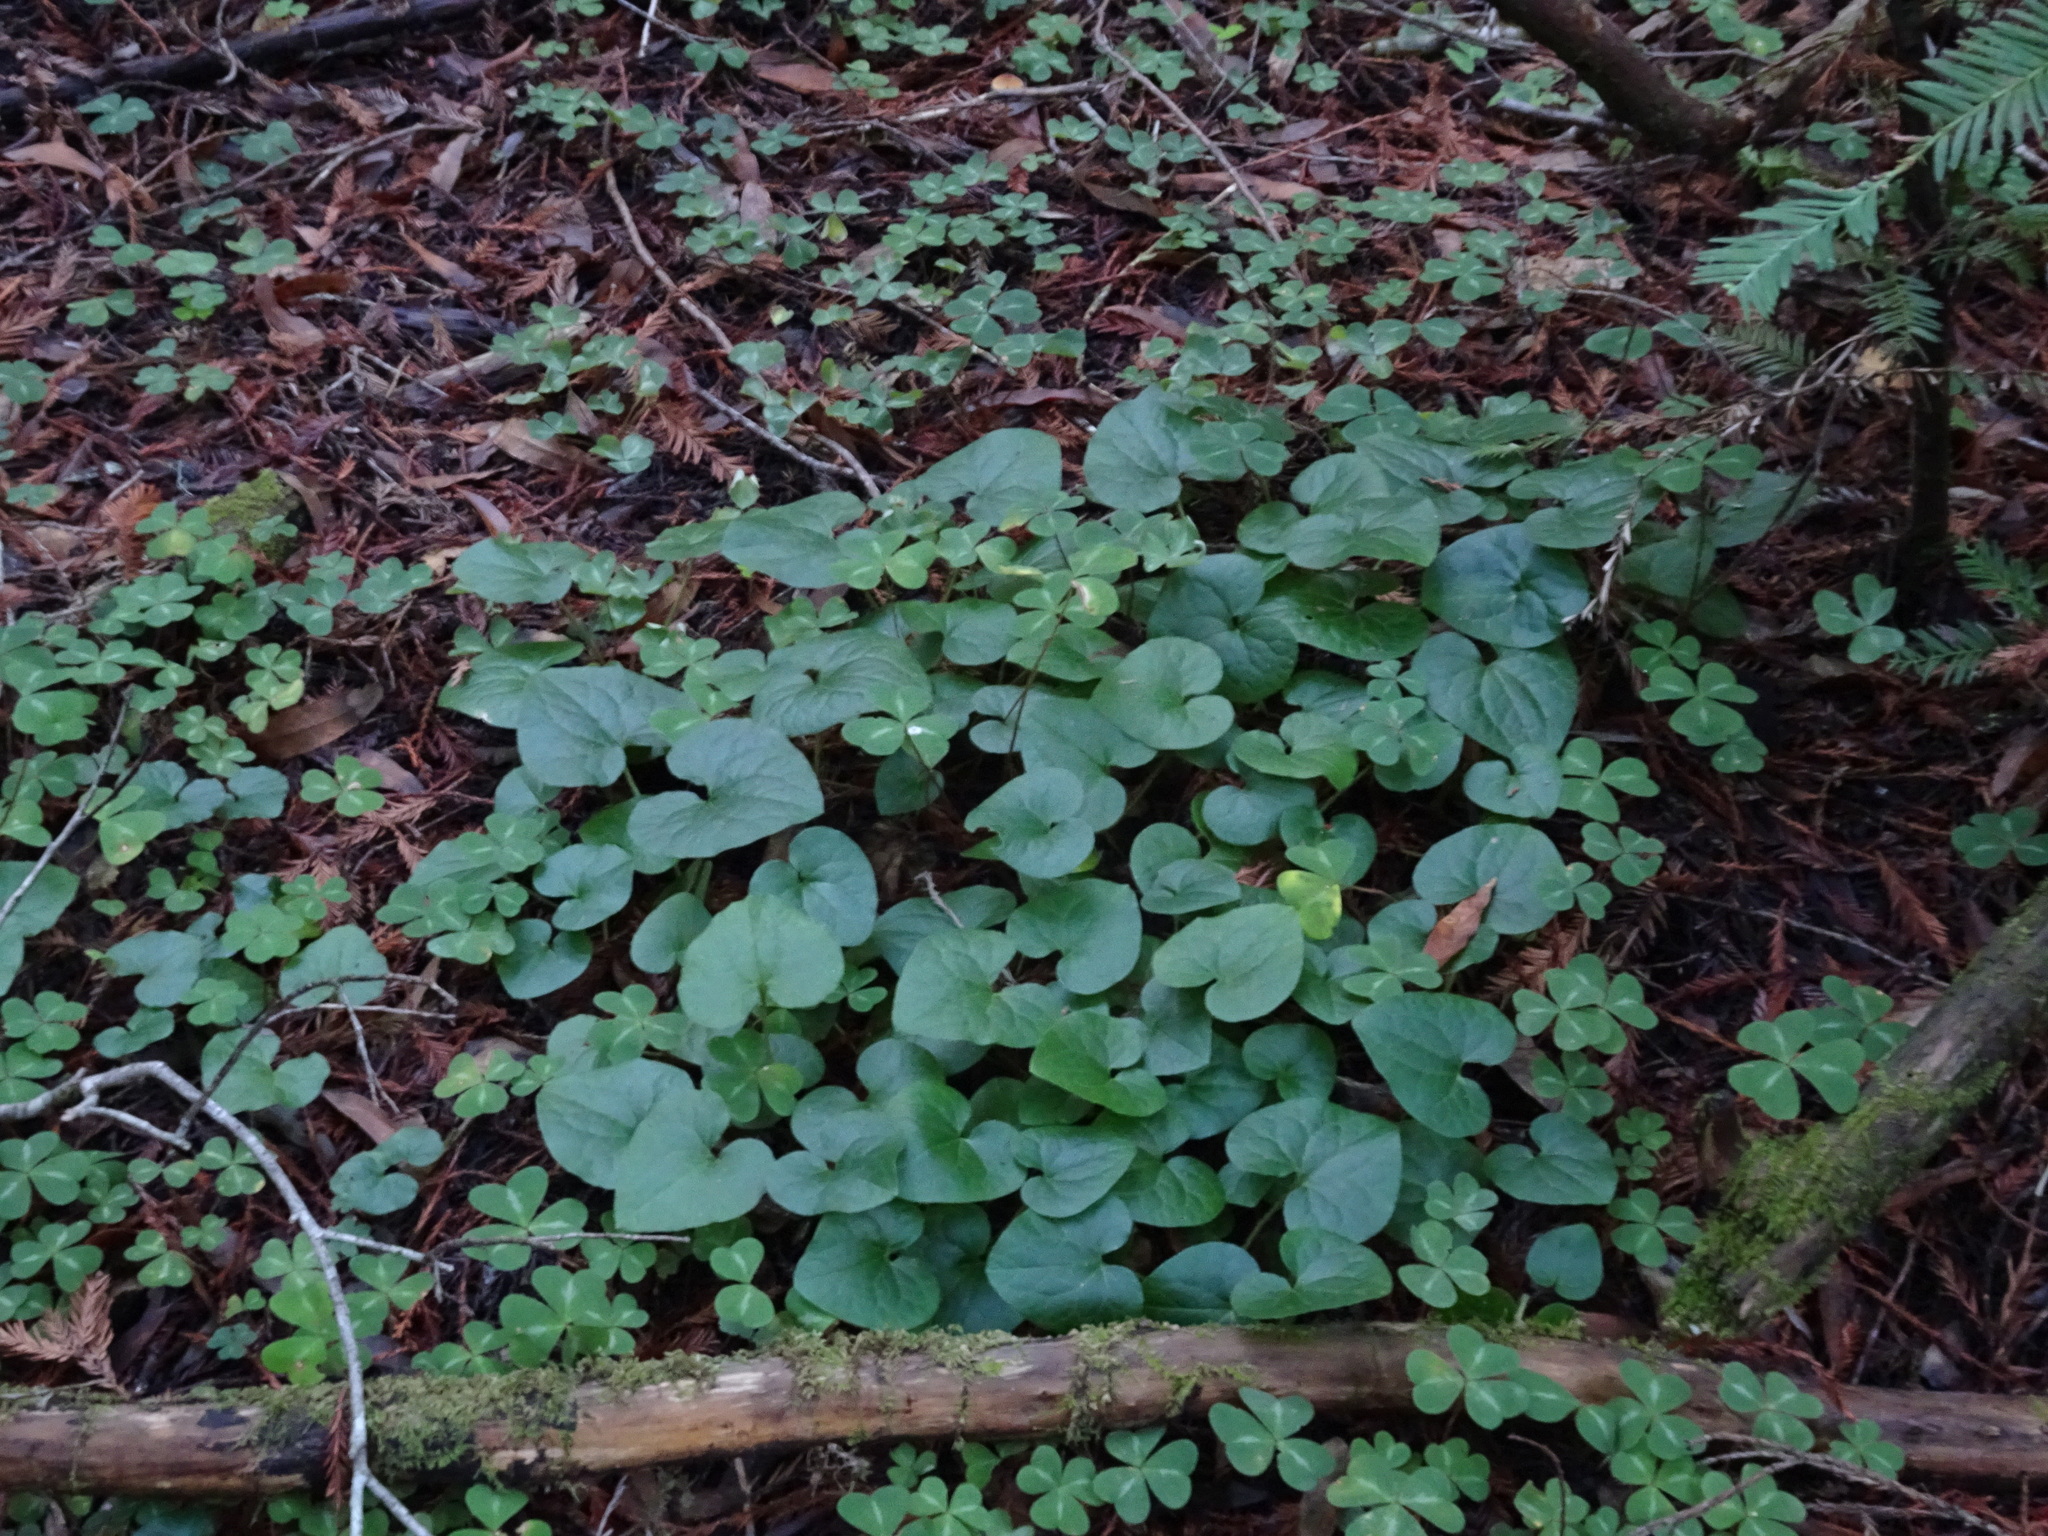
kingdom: Plantae
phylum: Tracheophyta
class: Magnoliopsida
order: Piperales
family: Aristolochiaceae
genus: Asarum
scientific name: Asarum caudatum
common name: Wild ginger
